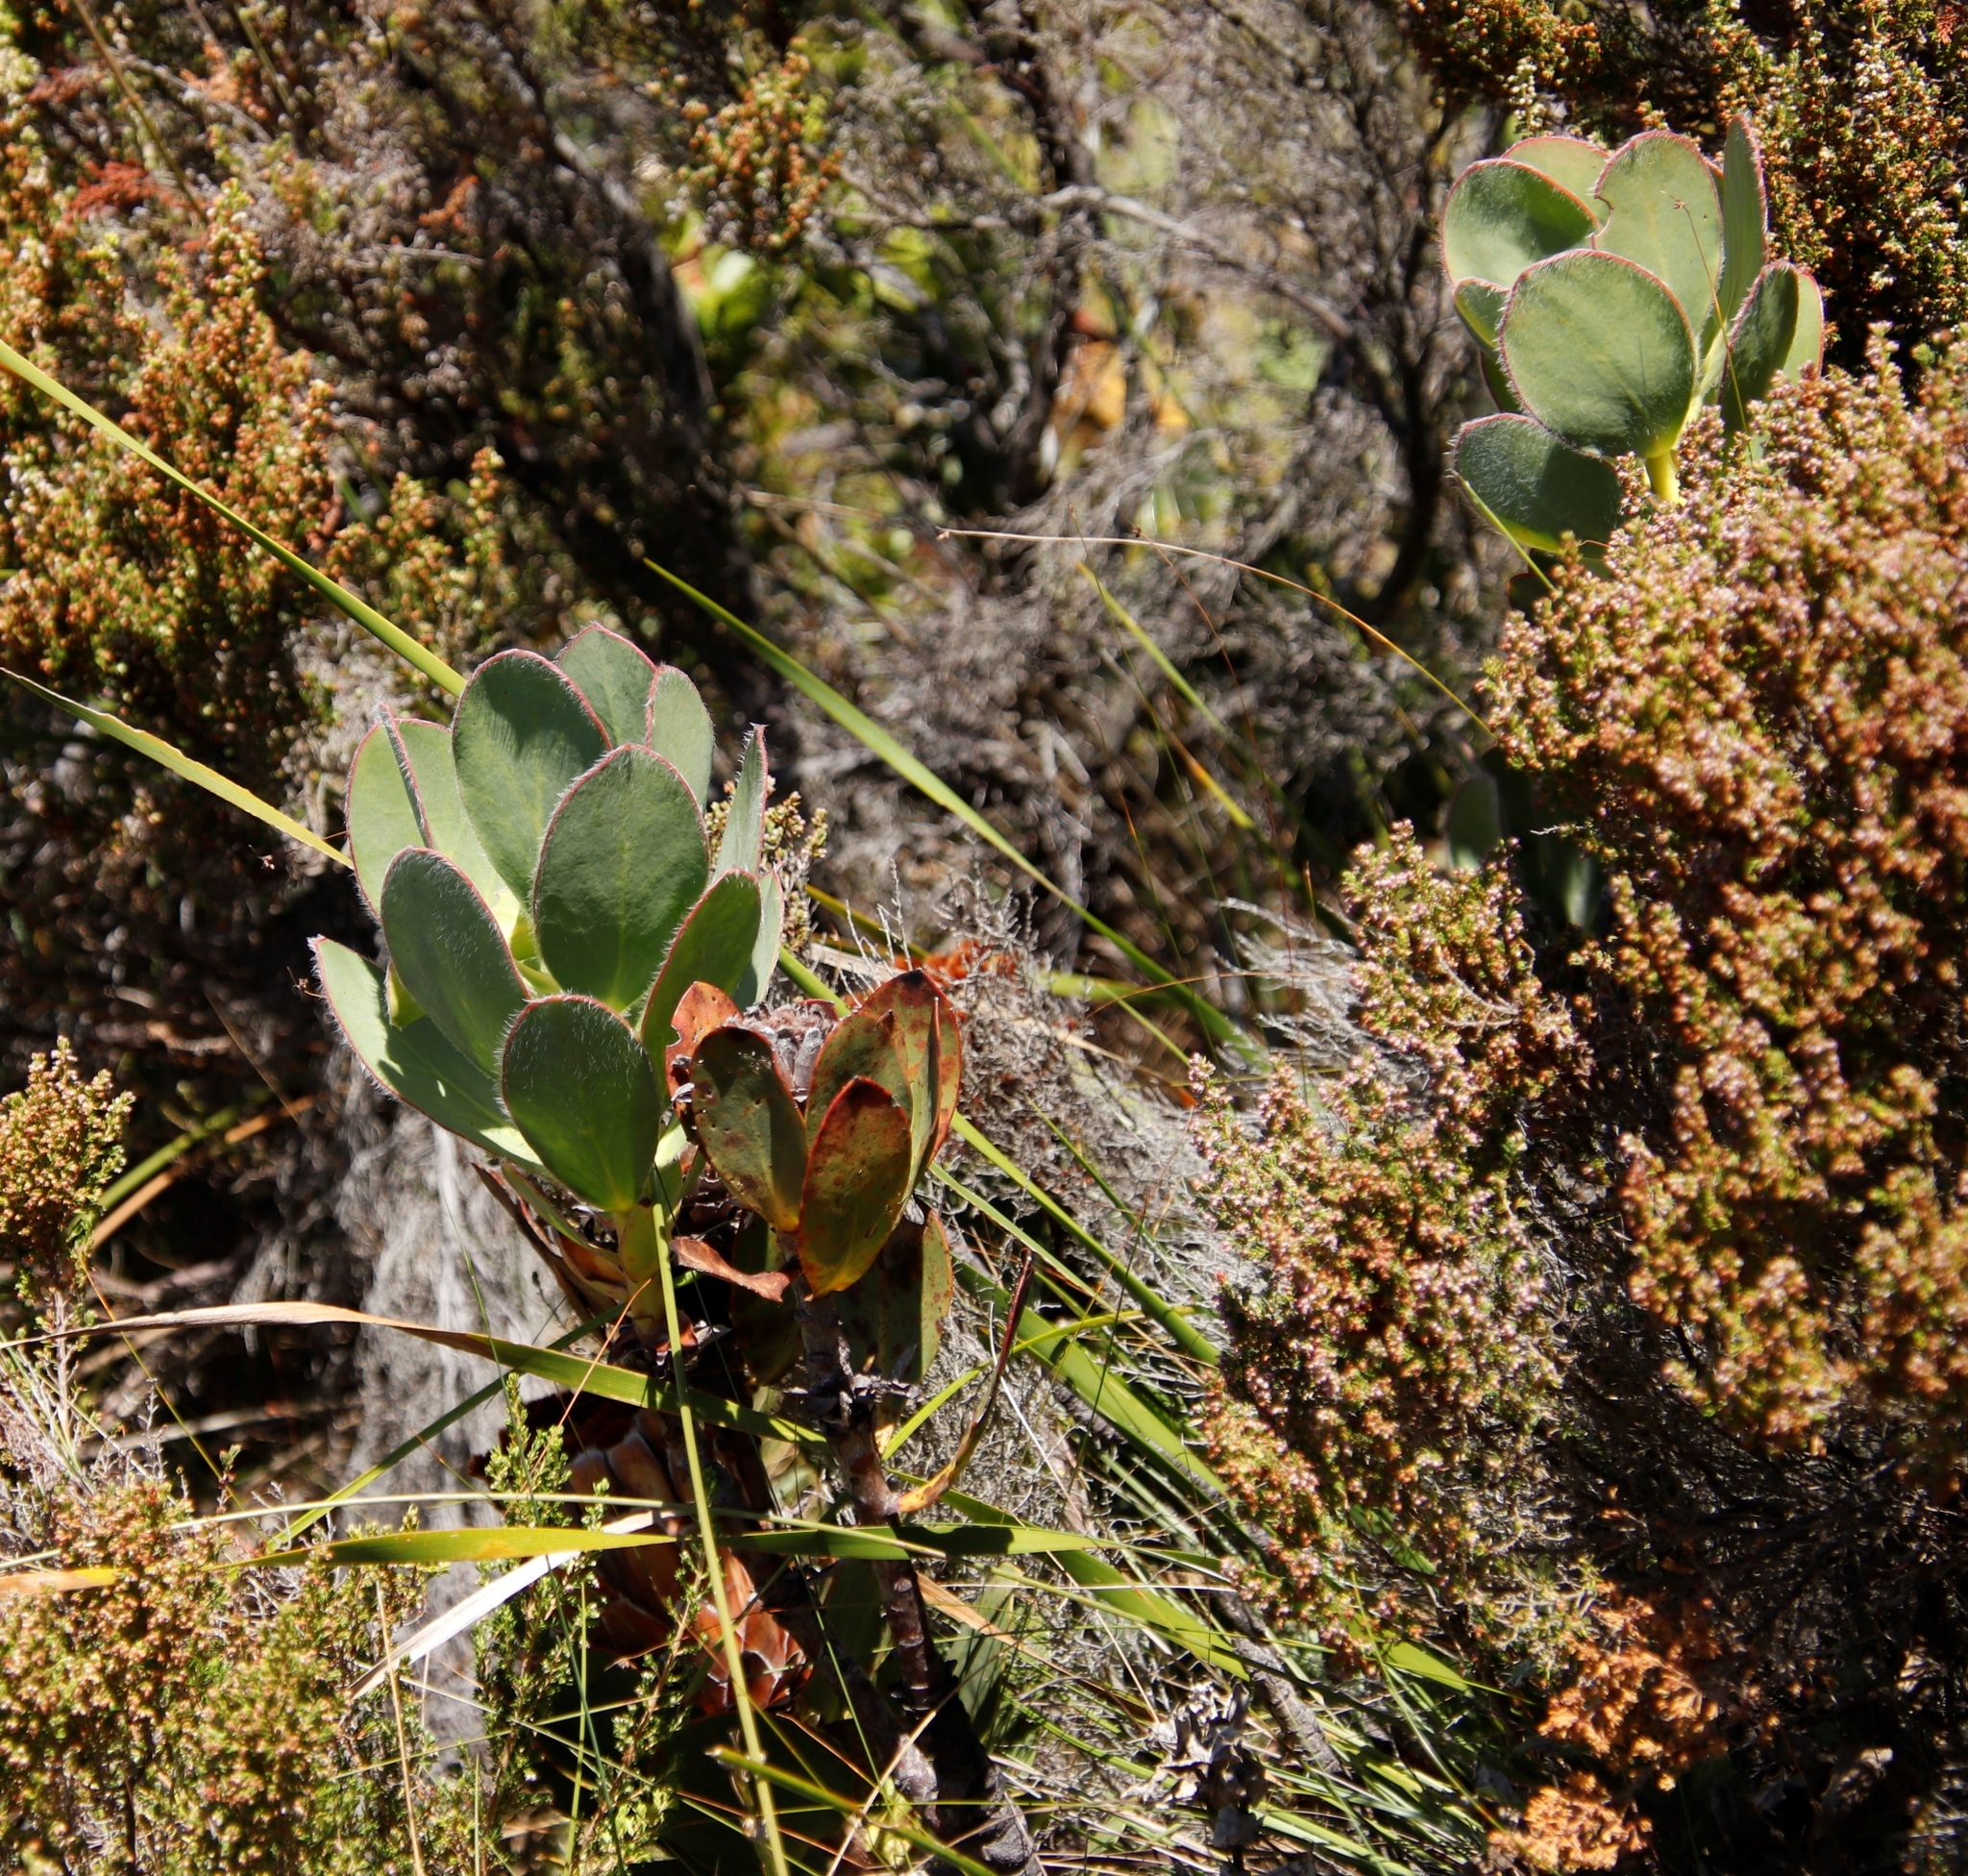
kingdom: Plantae
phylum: Tracheophyta
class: Magnoliopsida
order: Proteales
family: Proteaceae
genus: Protea
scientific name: Protea speciosa
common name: Brown-beard sugarbush
